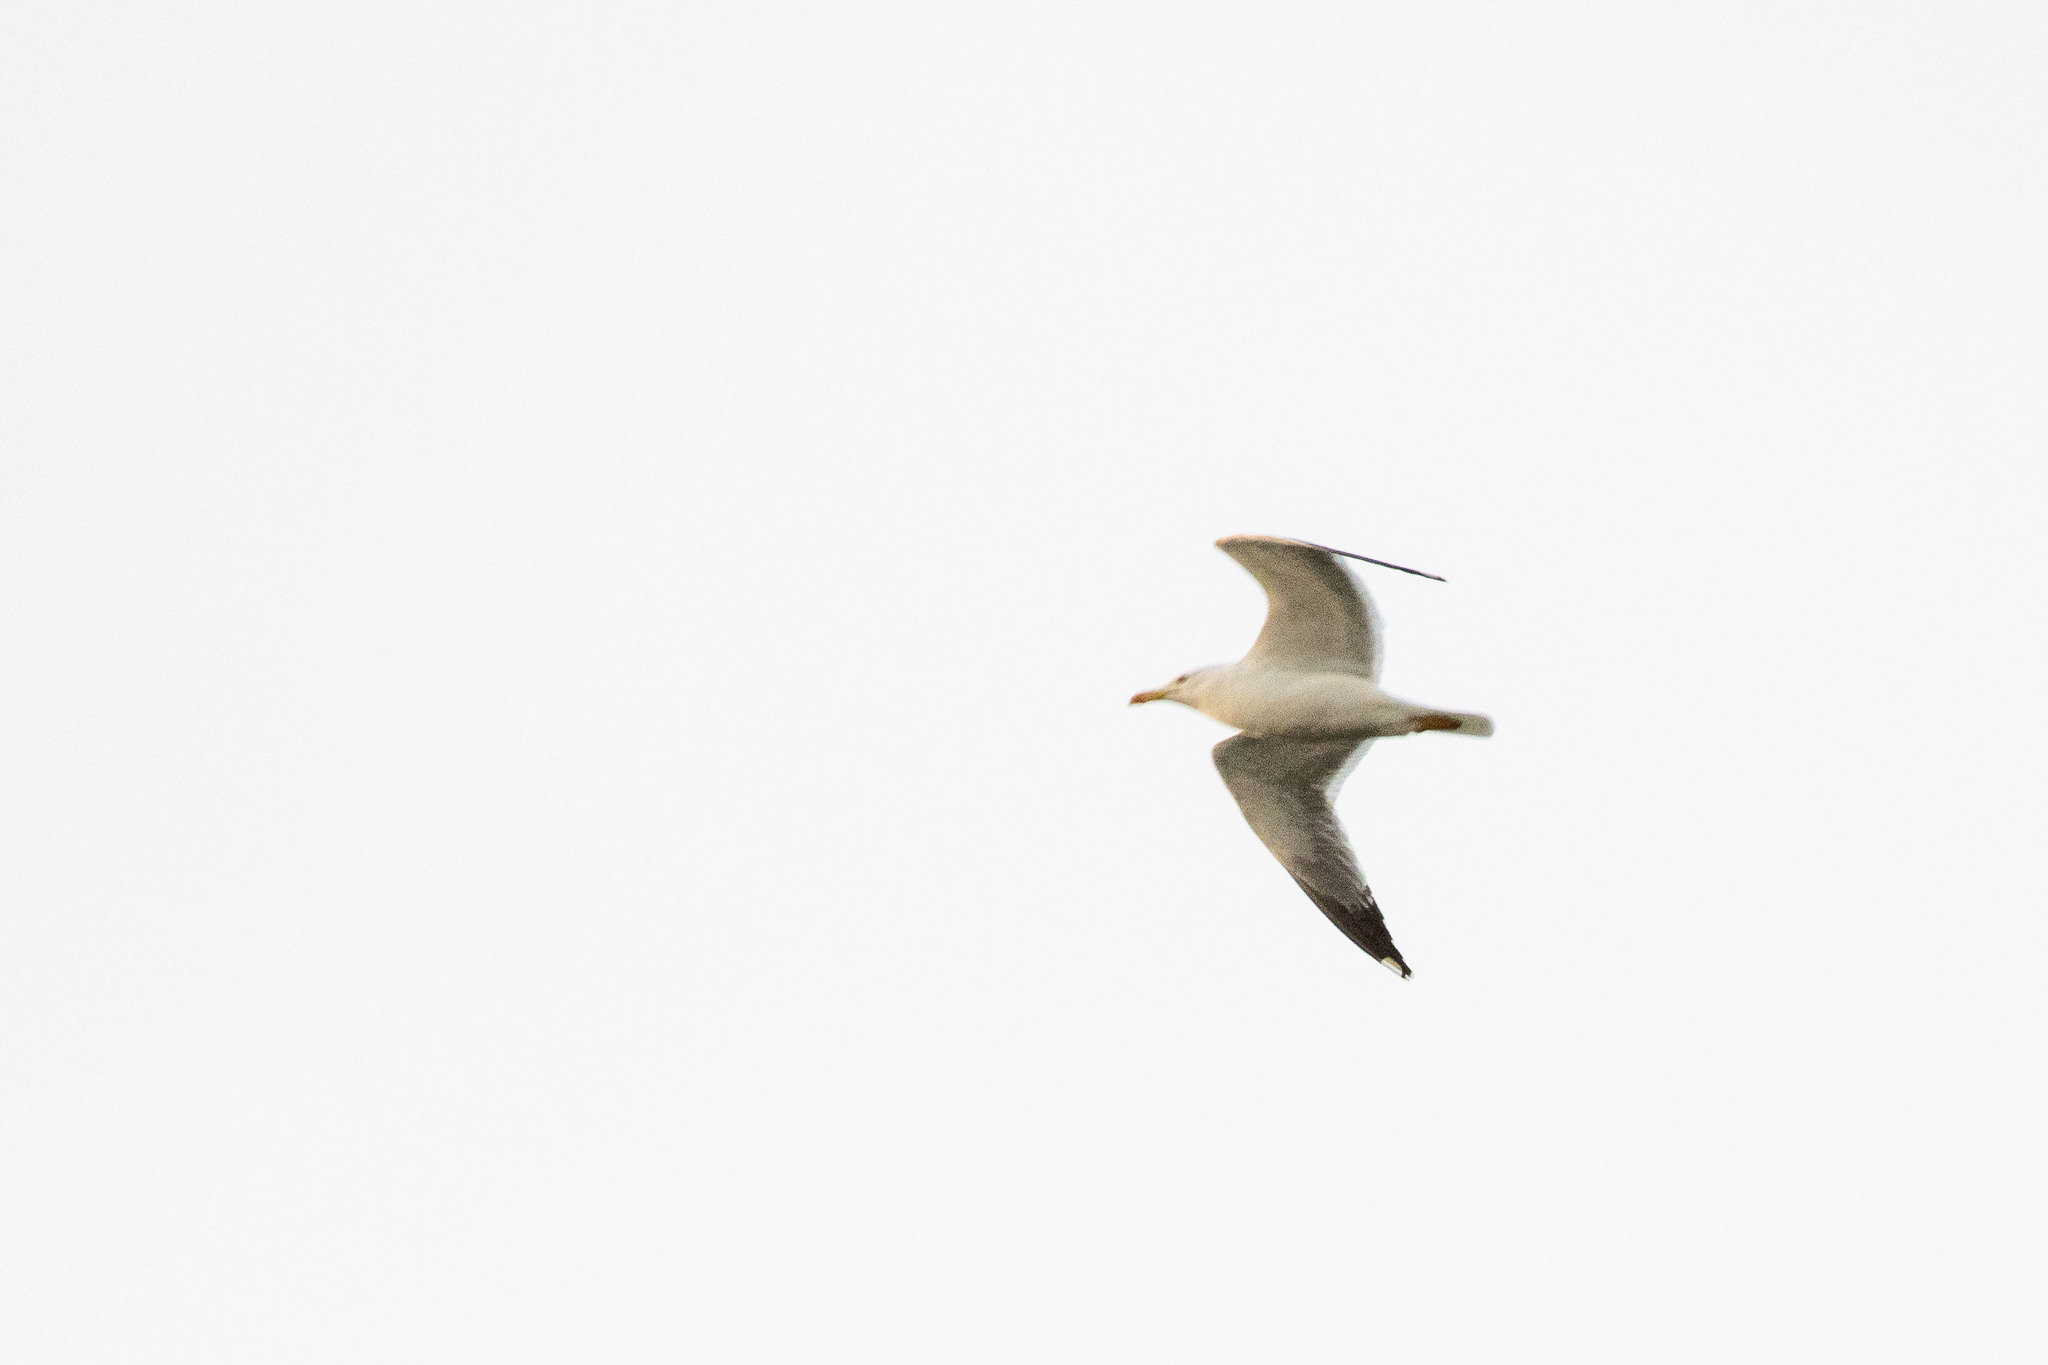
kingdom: Animalia
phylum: Chordata
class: Aves
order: Charadriiformes
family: Laridae
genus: Larus
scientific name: Larus michahellis
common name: Yellow-legged gull
